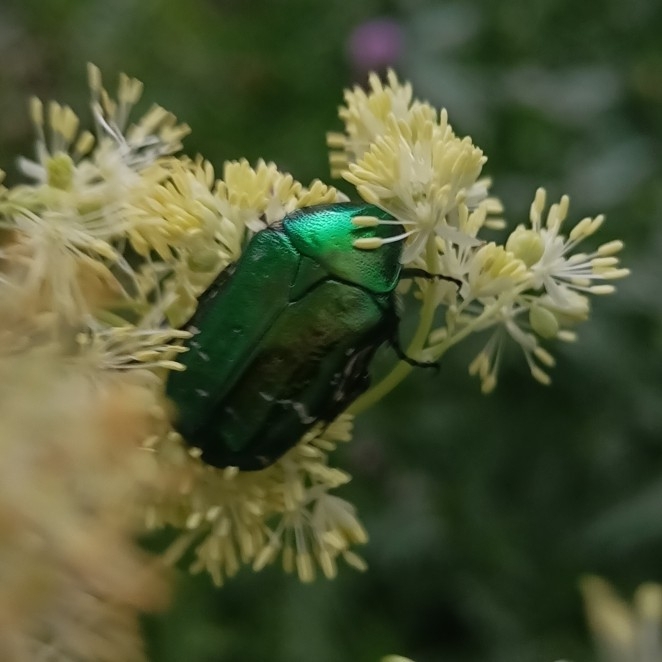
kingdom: Animalia
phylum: Arthropoda
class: Insecta
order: Coleoptera
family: Scarabaeidae
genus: Cetonia
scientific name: Cetonia aurata
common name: Rose chafer
